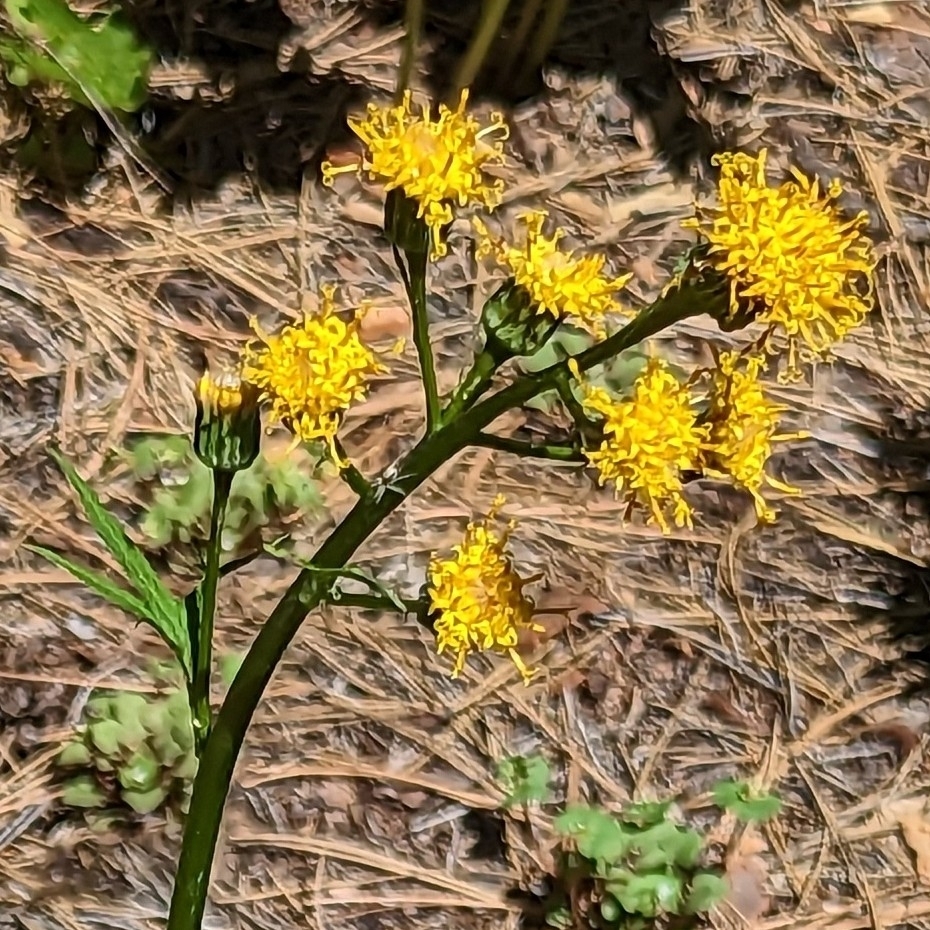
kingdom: Plantae
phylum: Tracheophyta
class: Magnoliopsida
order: Asterales
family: Asteraceae
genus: Cacaliopsis
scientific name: Cacaliopsis nardosmia
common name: Silvercrown
